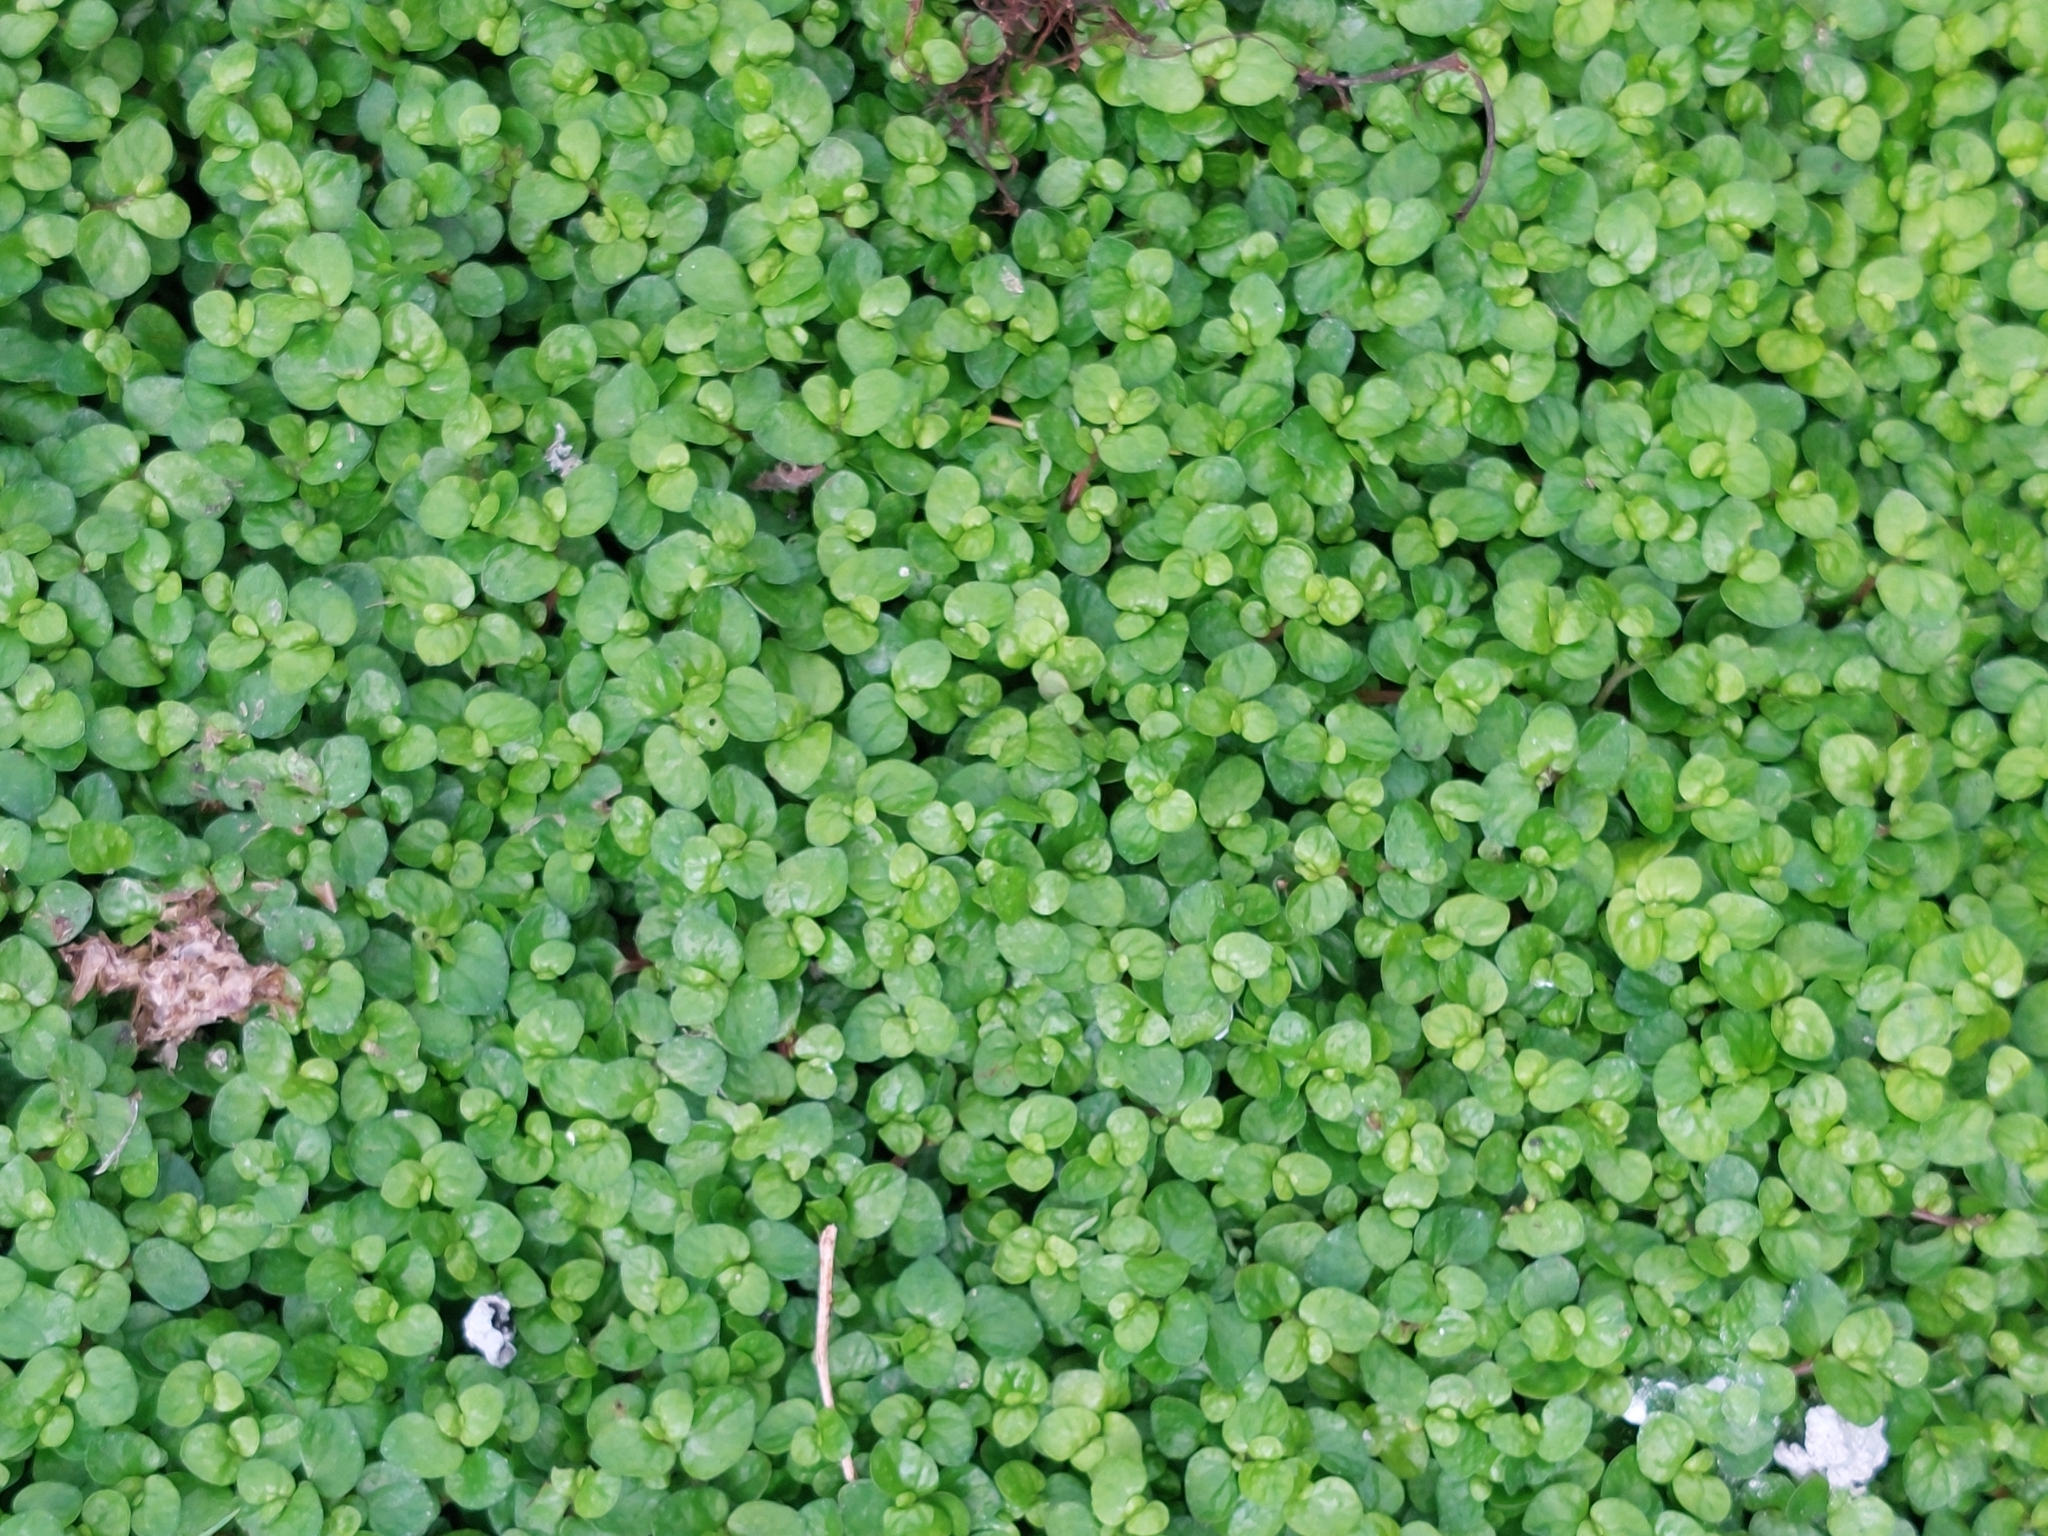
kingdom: Plantae
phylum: Tracheophyta
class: Magnoliopsida
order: Rosales
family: Urticaceae
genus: Soleirolia
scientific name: Soleirolia soleirolii
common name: Mind-your-own-business
